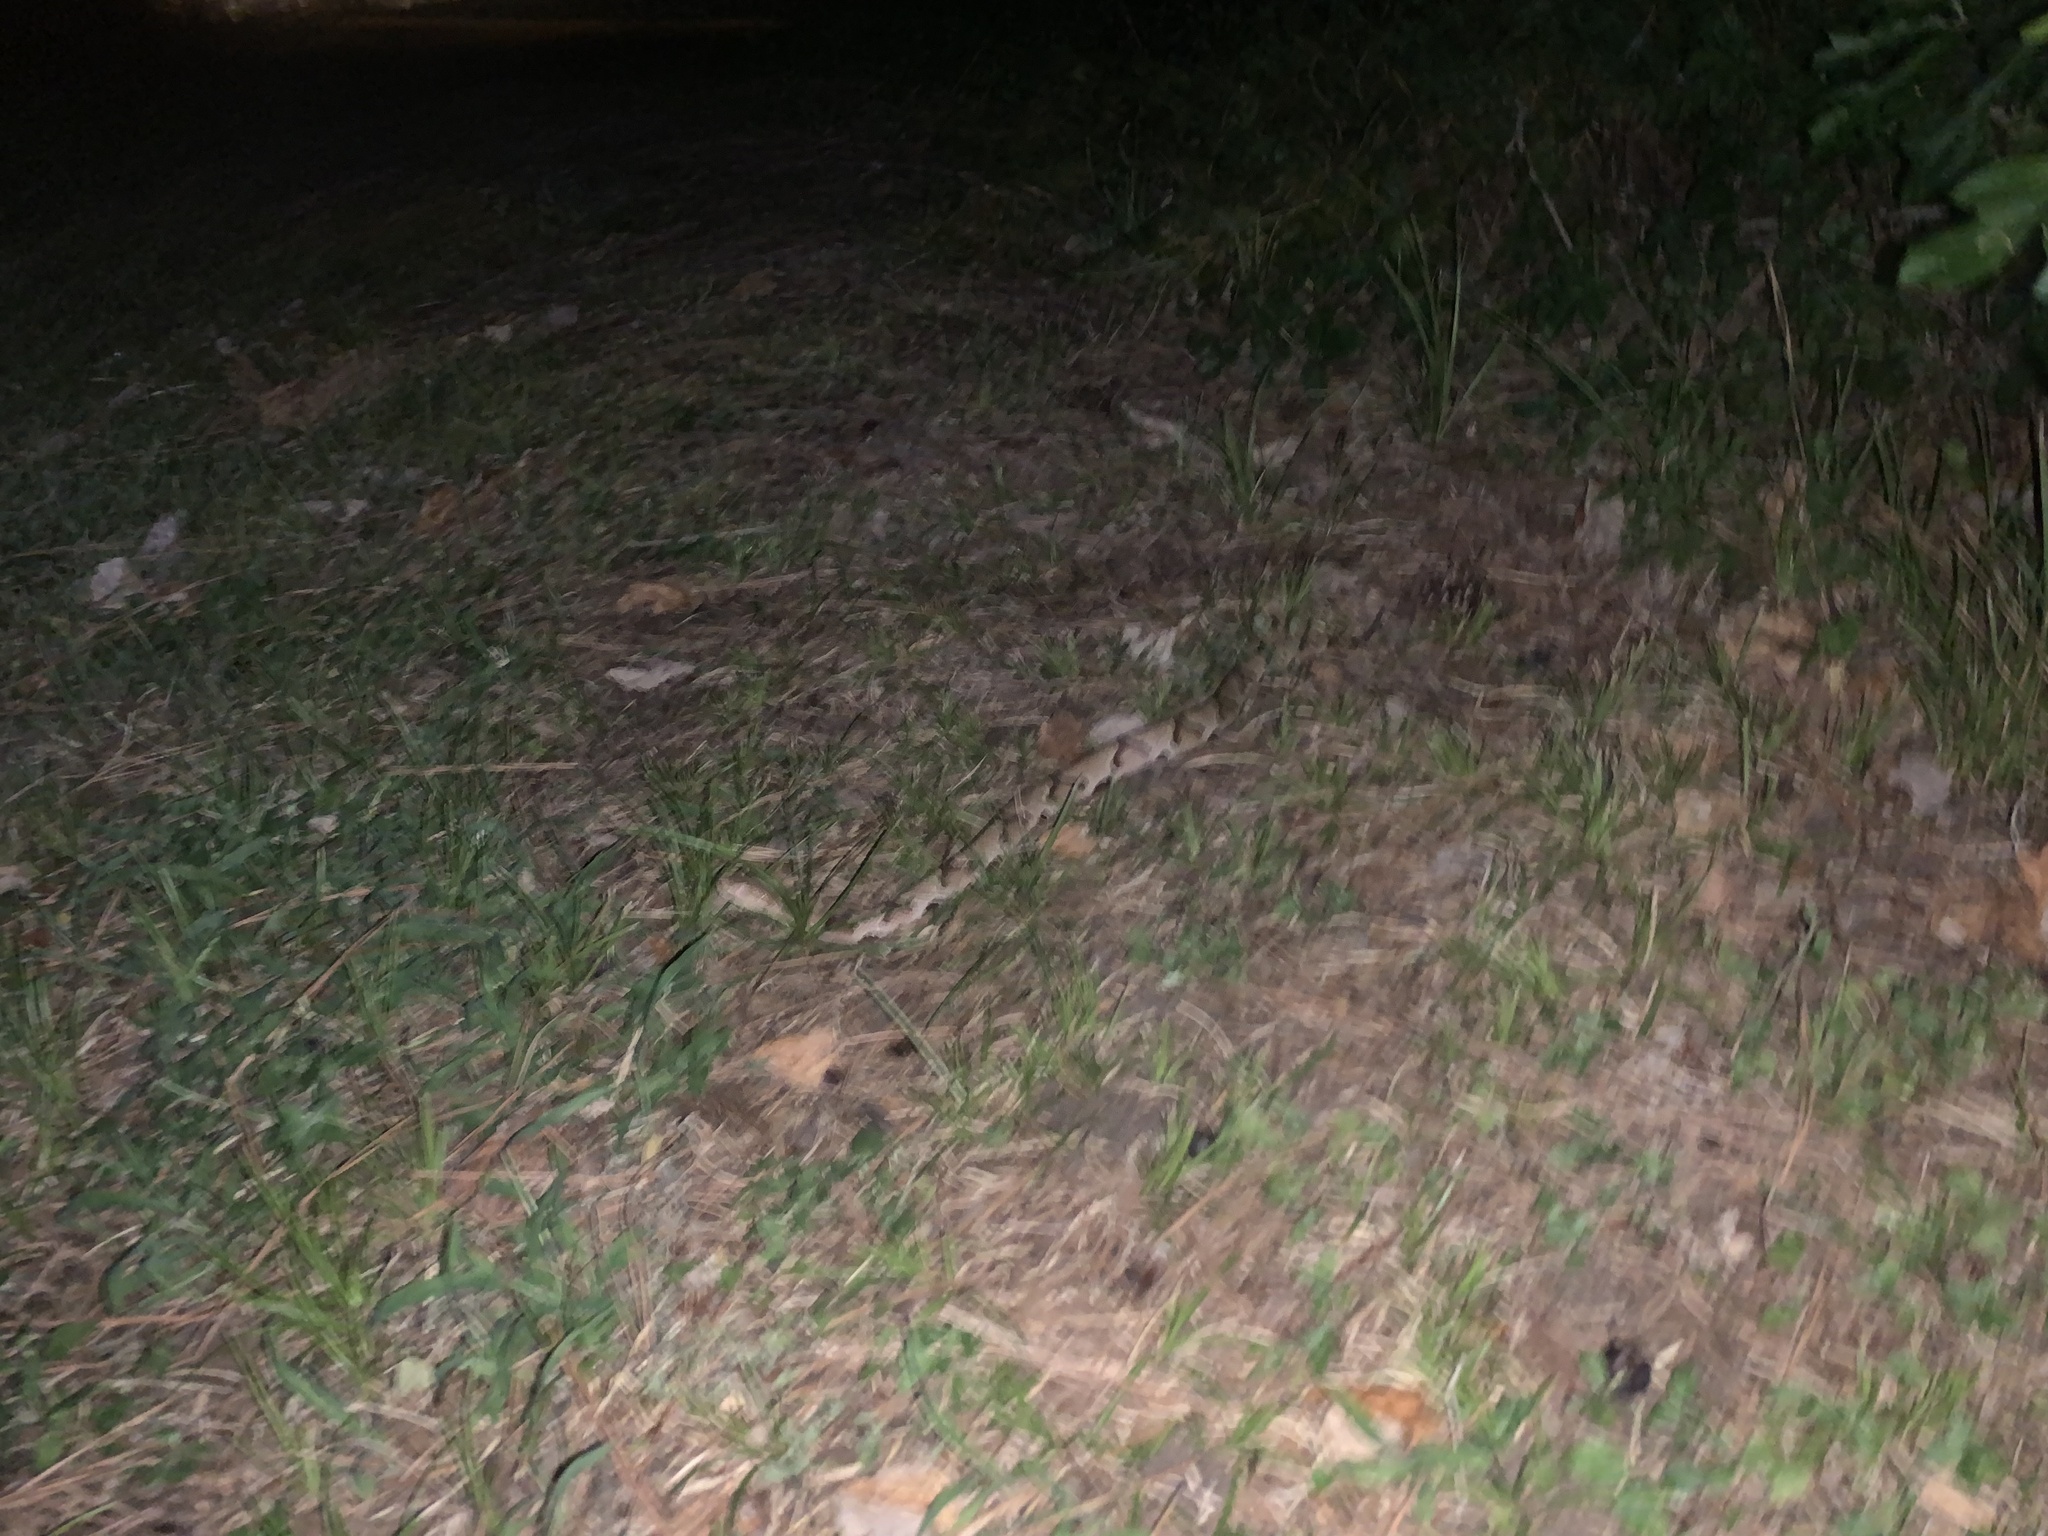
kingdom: Animalia
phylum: Chordata
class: Squamata
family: Viperidae
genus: Agkistrodon
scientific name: Agkistrodon contortrix
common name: Northern copperhead
